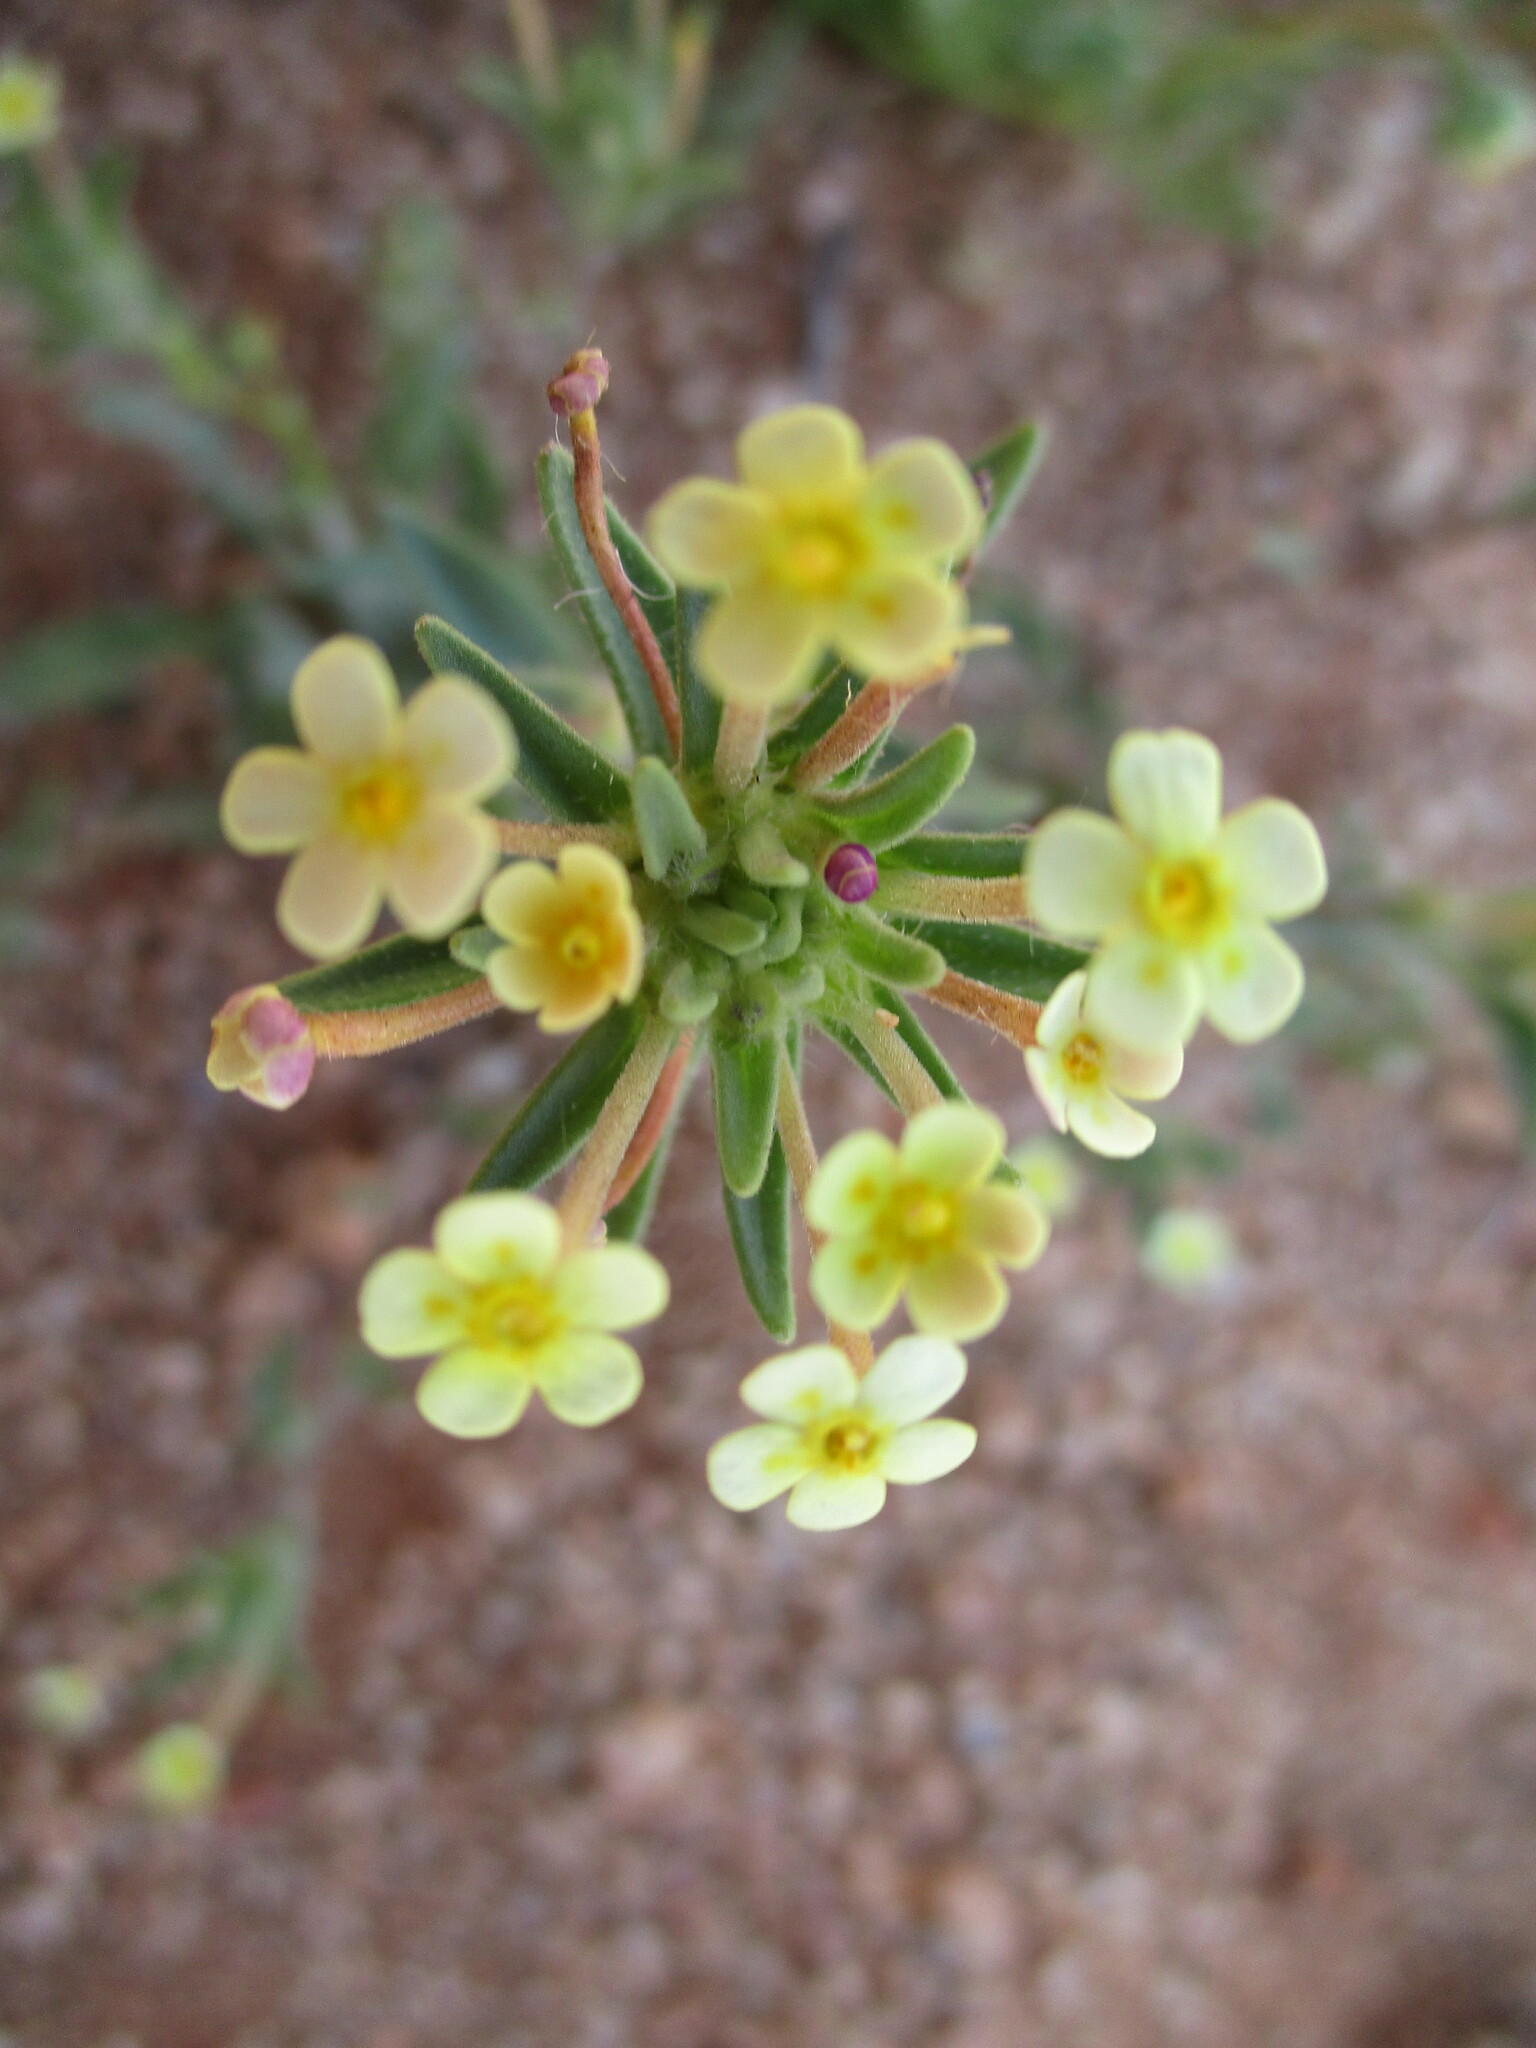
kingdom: Plantae
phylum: Tracheophyta
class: Magnoliopsida
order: Lamiales
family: Scrophulariaceae
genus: Zaluzianskya
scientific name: Zaluzianskya benthamiana
